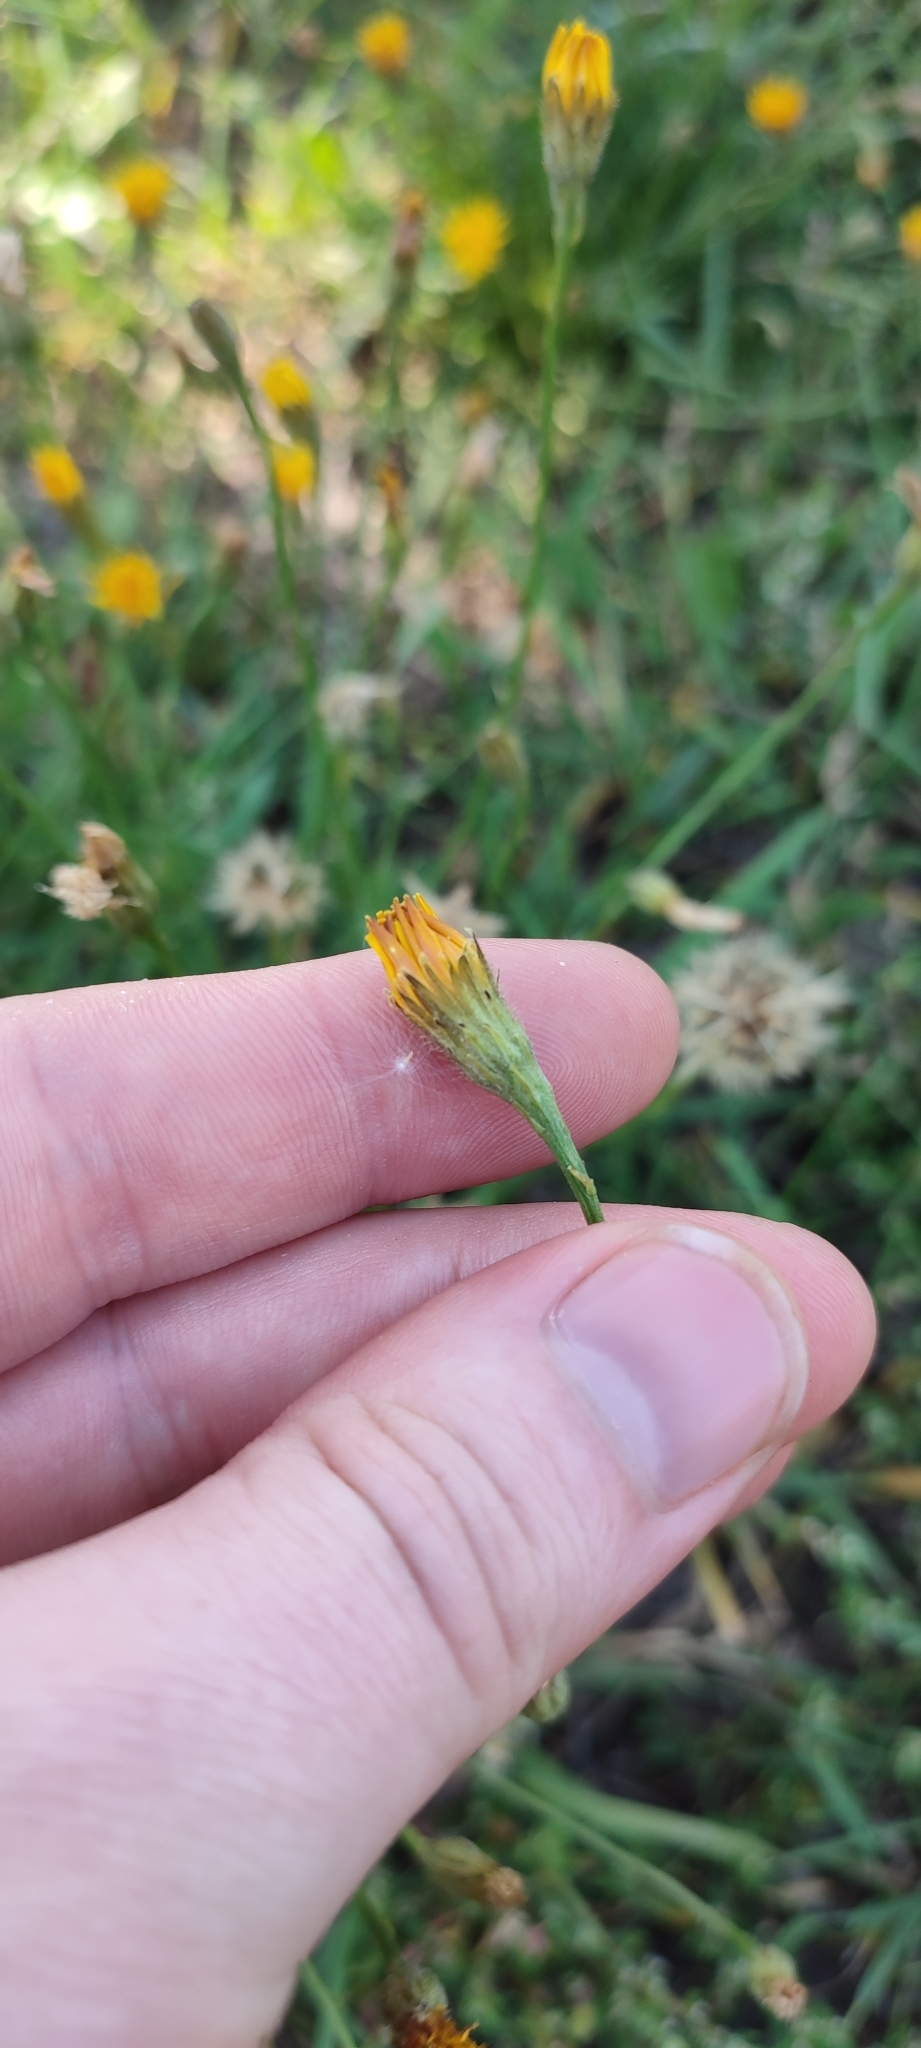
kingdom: Plantae
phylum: Tracheophyta
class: Magnoliopsida
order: Asterales
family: Asteraceae
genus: Scorzoneroides
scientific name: Scorzoneroides autumnalis
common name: Autumn hawkbit
